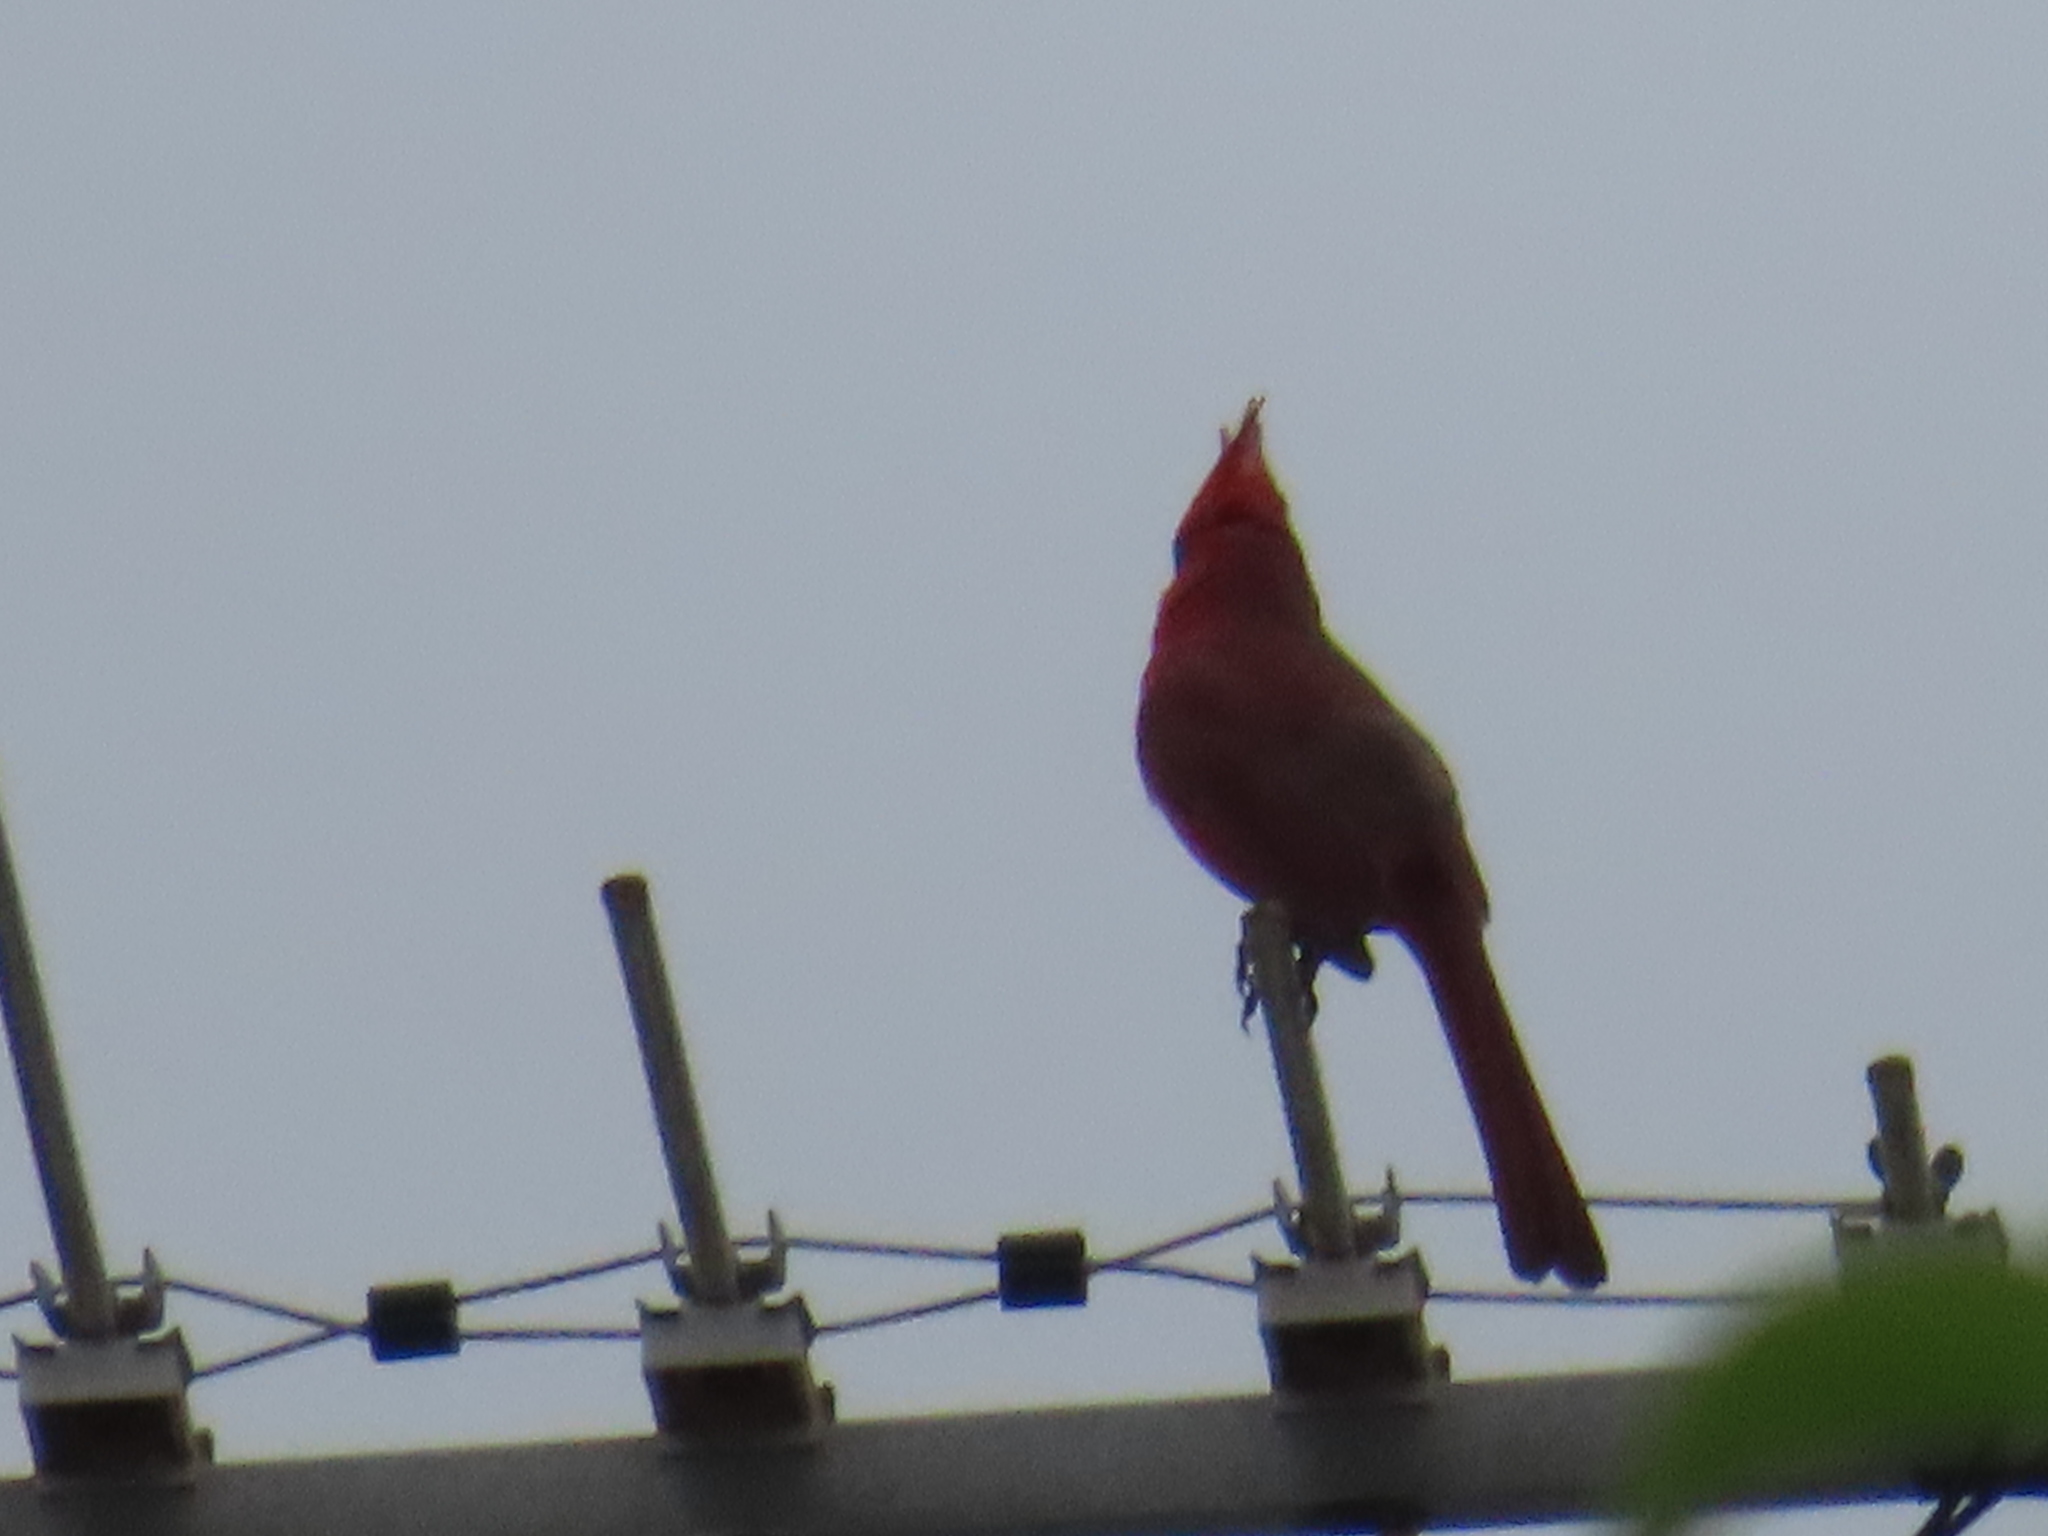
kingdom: Animalia
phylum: Chordata
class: Aves
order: Passeriformes
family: Cardinalidae
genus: Cardinalis
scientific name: Cardinalis cardinalis
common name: Northern cardinal
